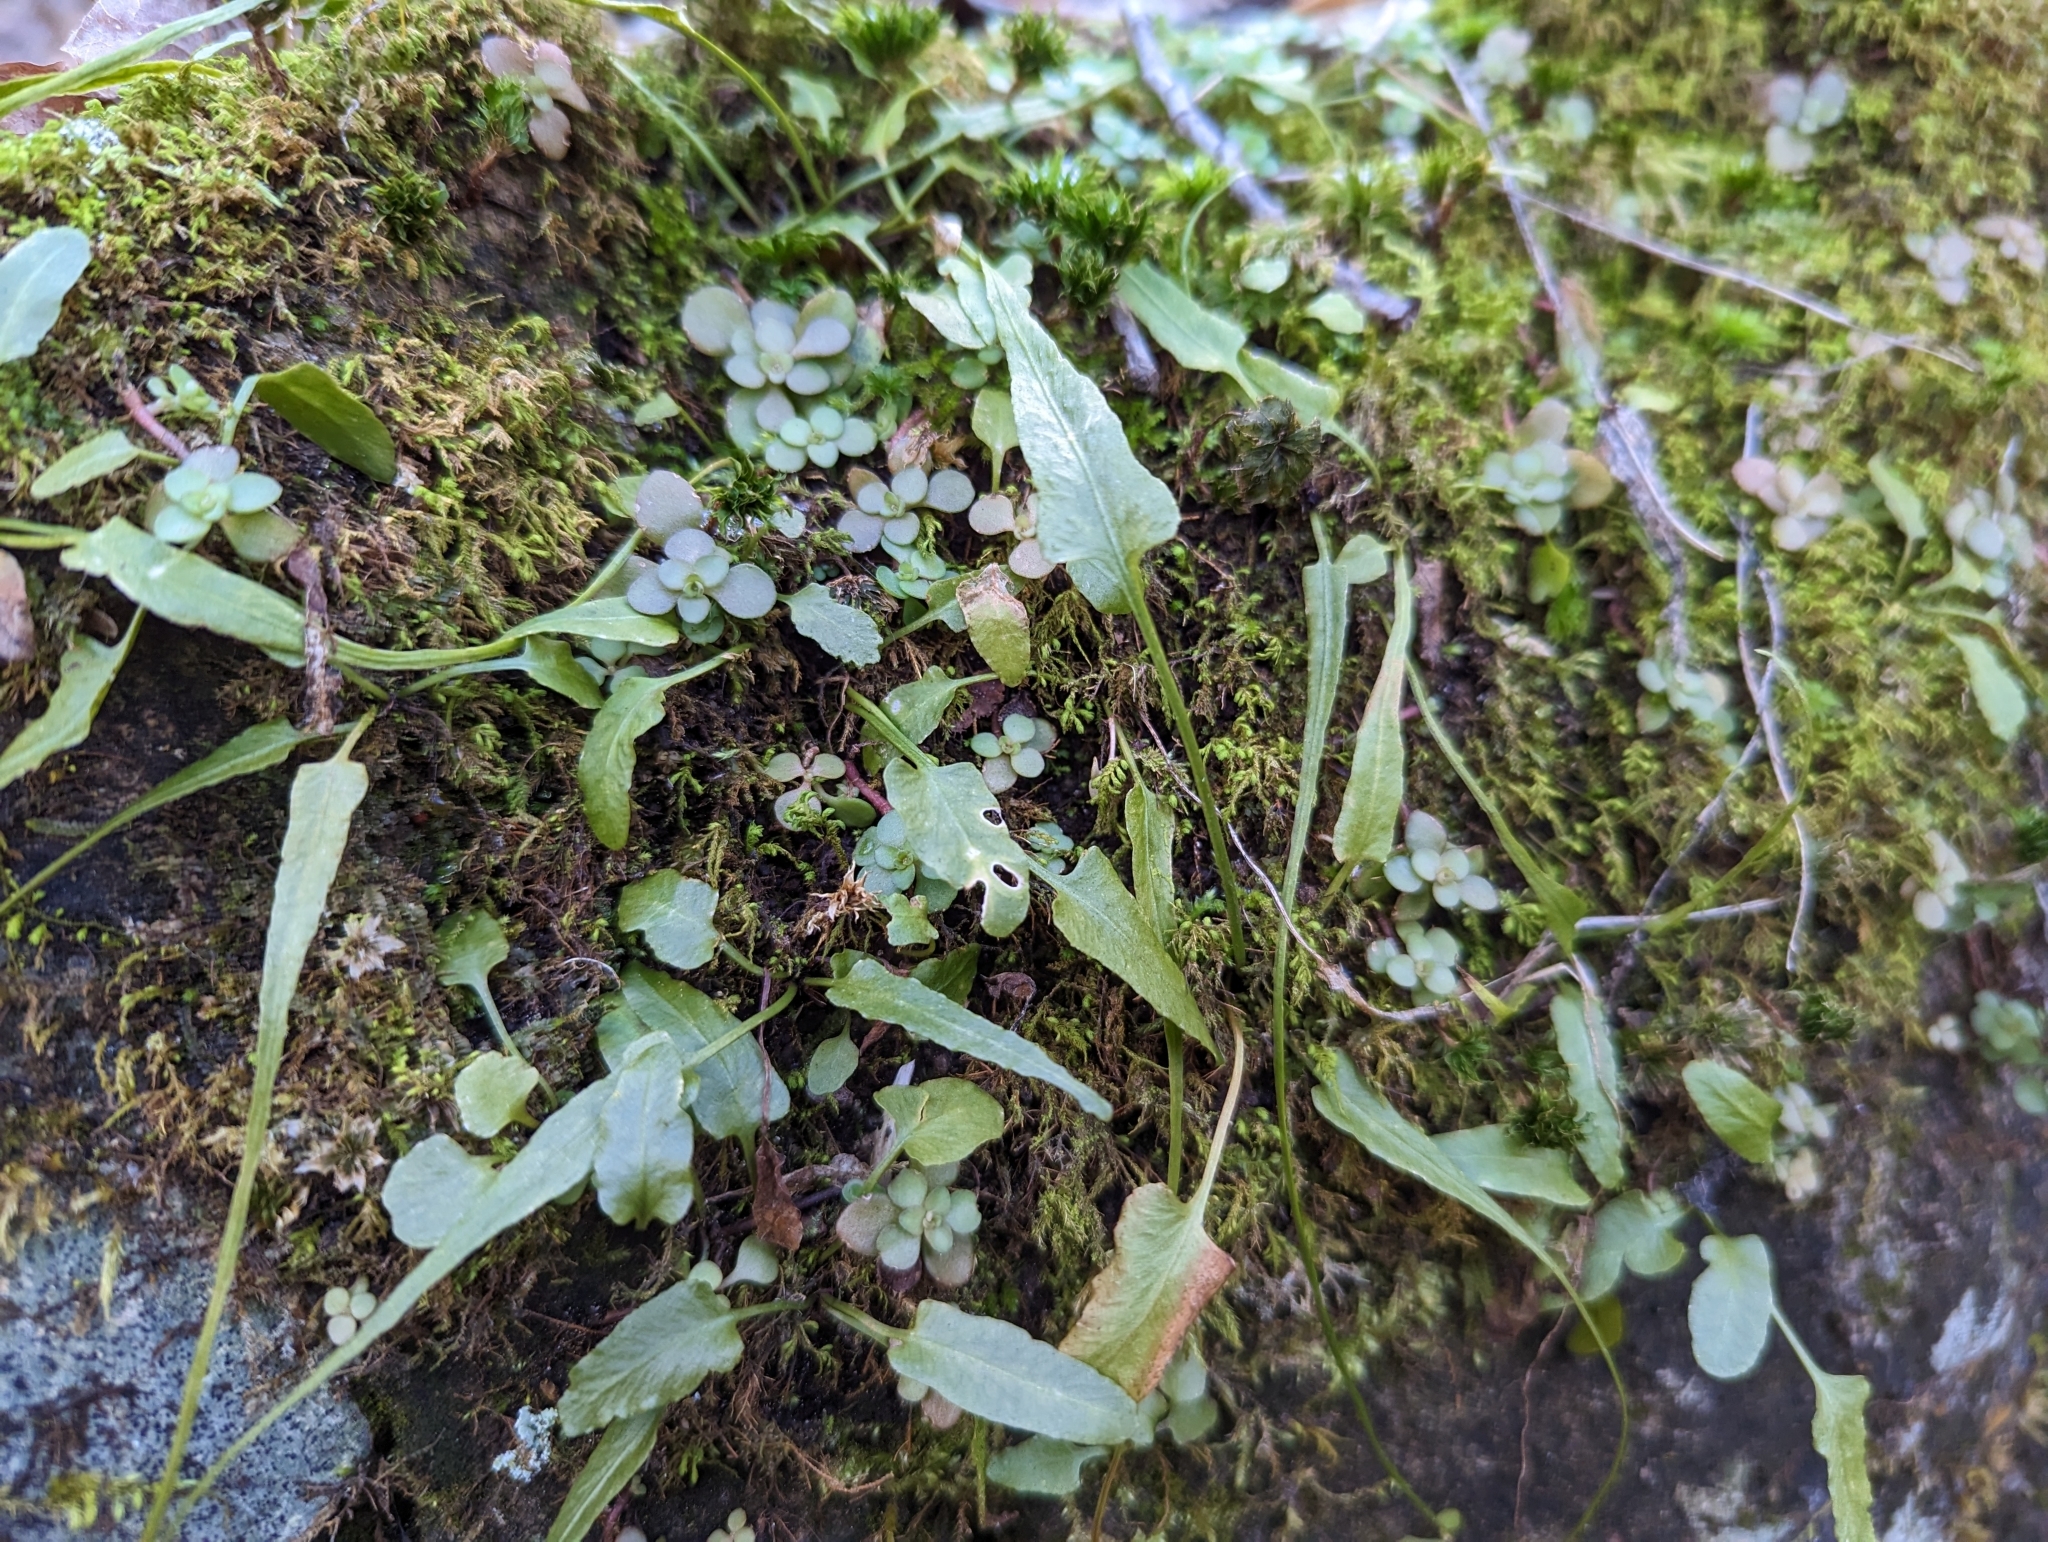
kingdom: Plantae
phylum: Tracheophyta
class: Polypodiopsida
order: Polypodiales
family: Aspleniaceae
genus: Asplenium
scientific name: Asplenium rhizophyllum
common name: Walking fern
